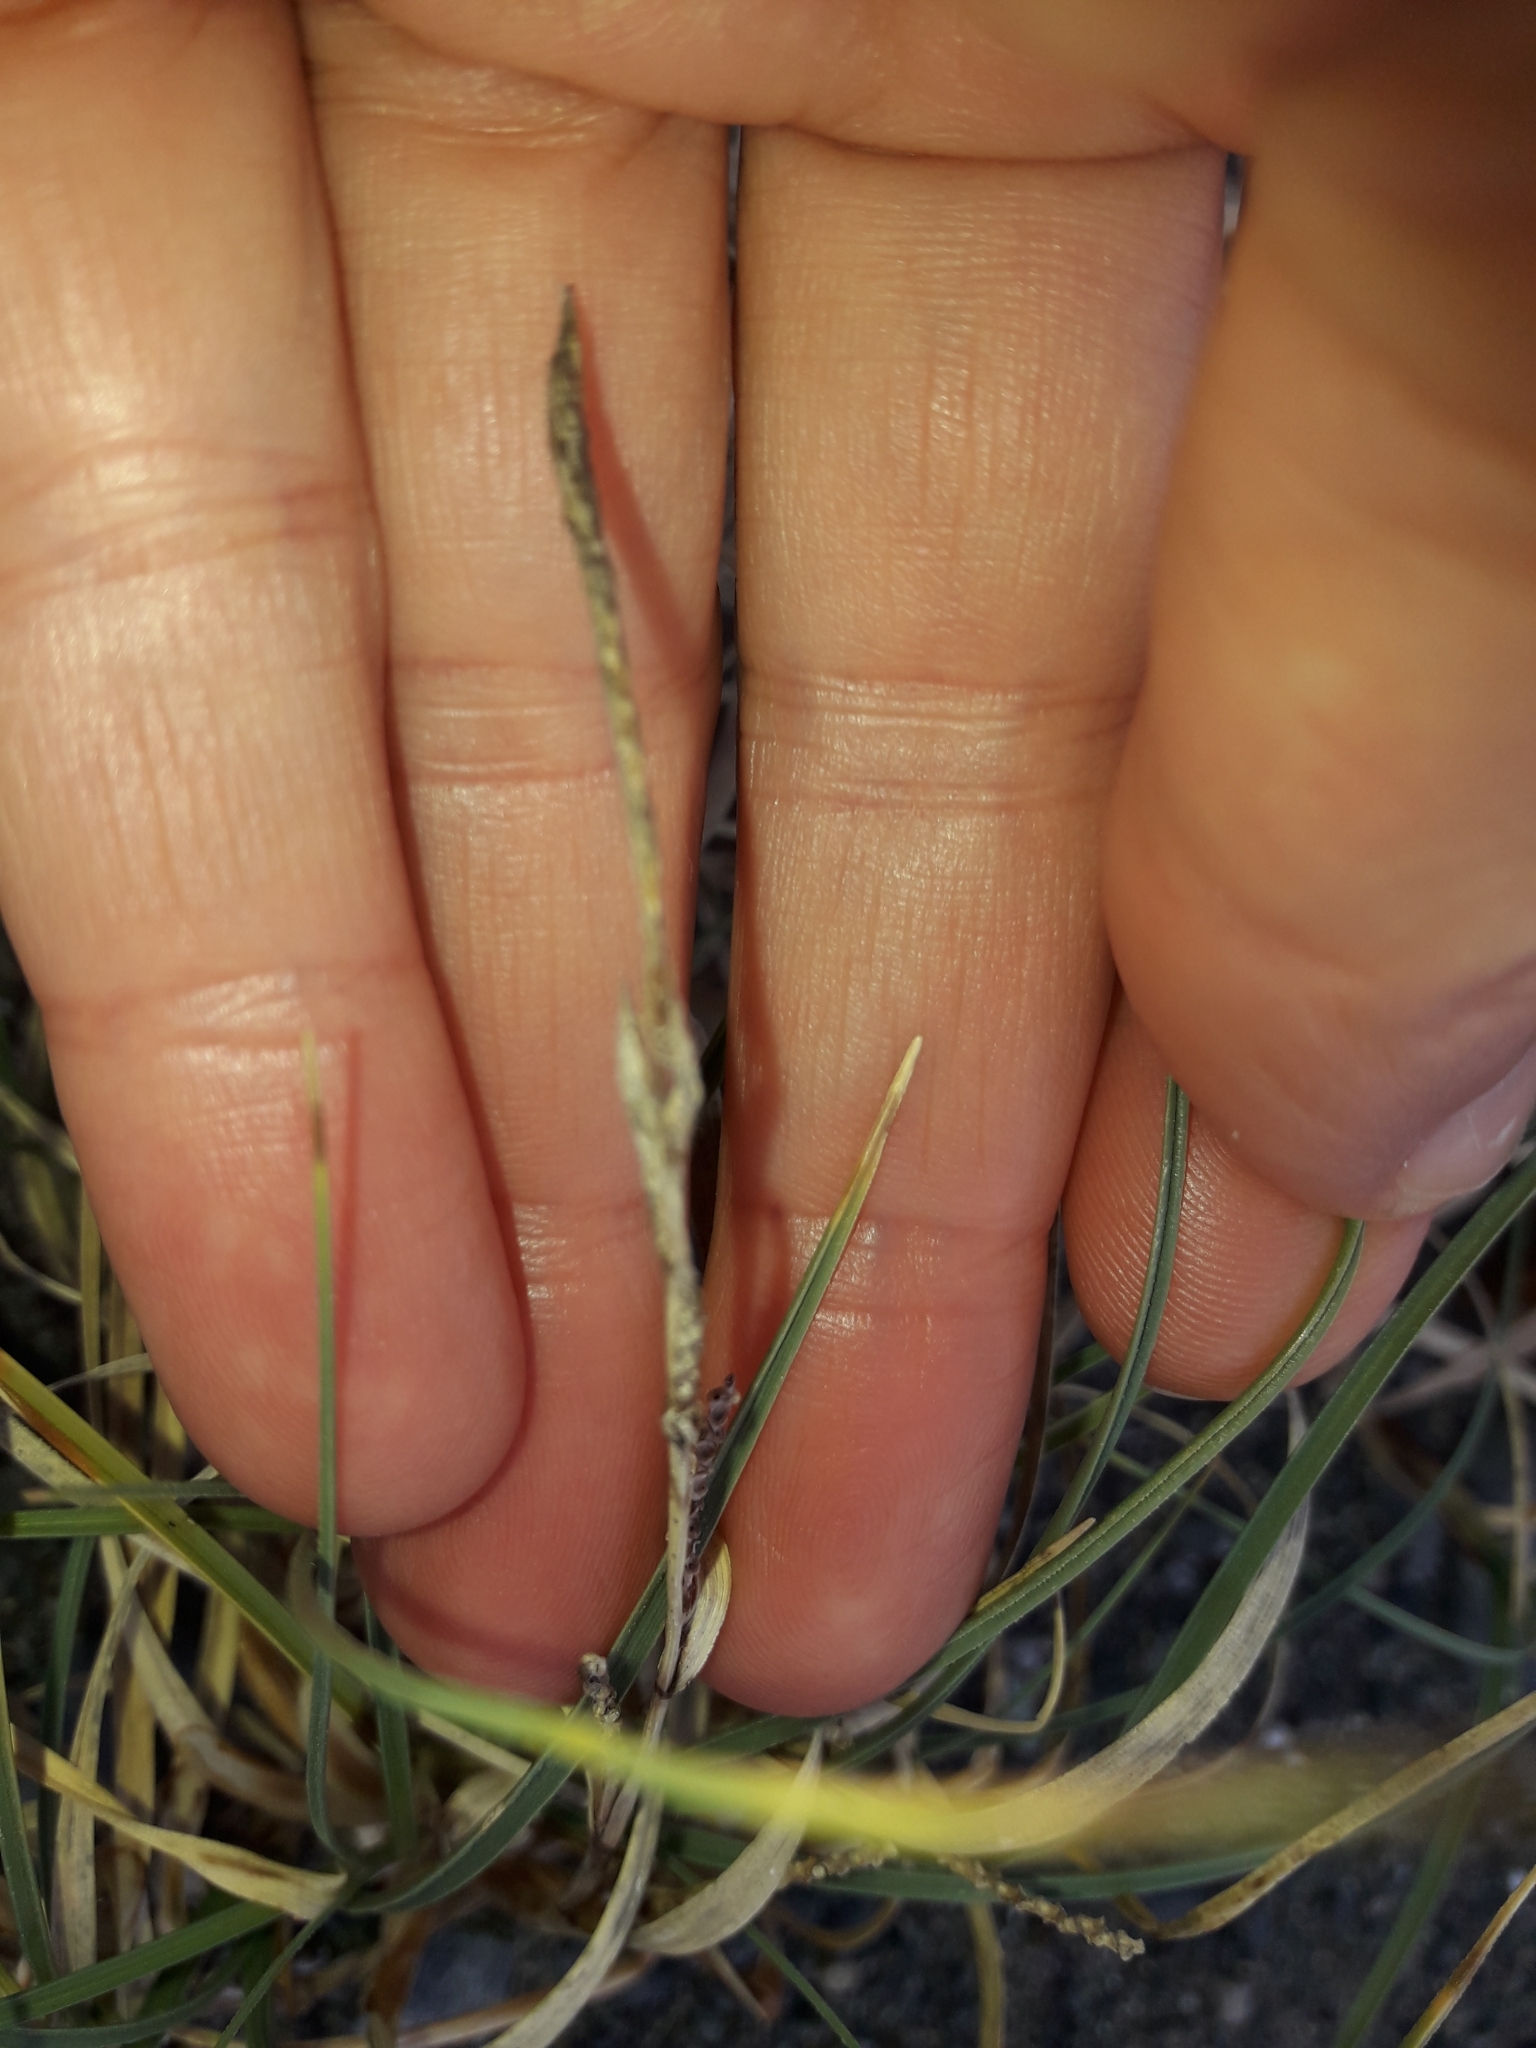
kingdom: Plantae
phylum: Tracheophyta
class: Liliopsida
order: Poales
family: Cyperaceae
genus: Carex
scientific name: Carex pumila
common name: Dwarf sedge
